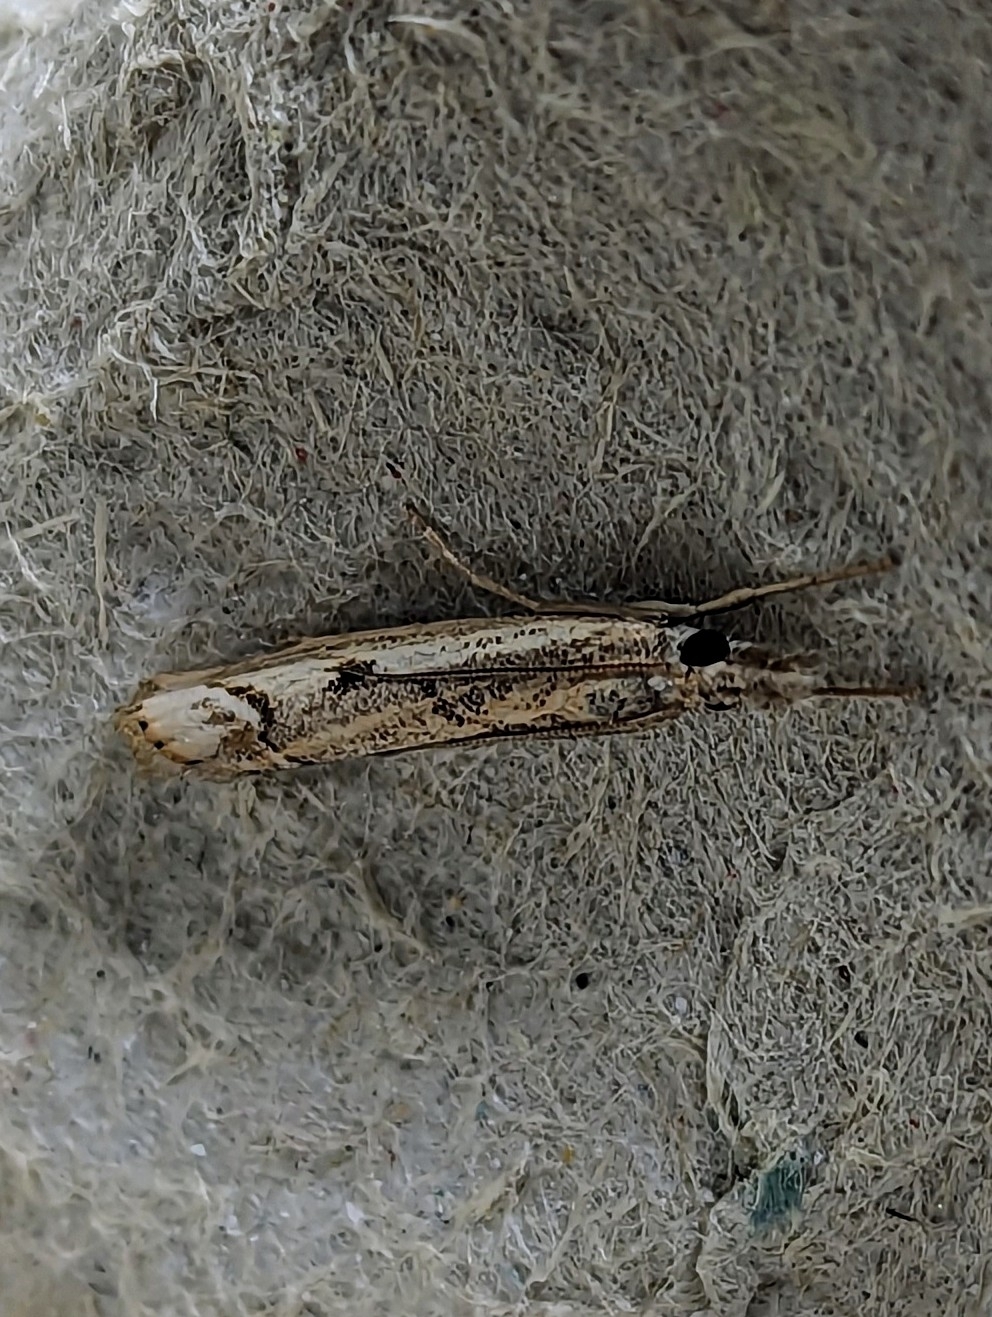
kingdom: Animalia
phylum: Arthropoda
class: Insecta
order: Lepidoptera
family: Crambidae
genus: Agriphila
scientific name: Agriphila geniculea
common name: Elbow-stripe grass-veneer
